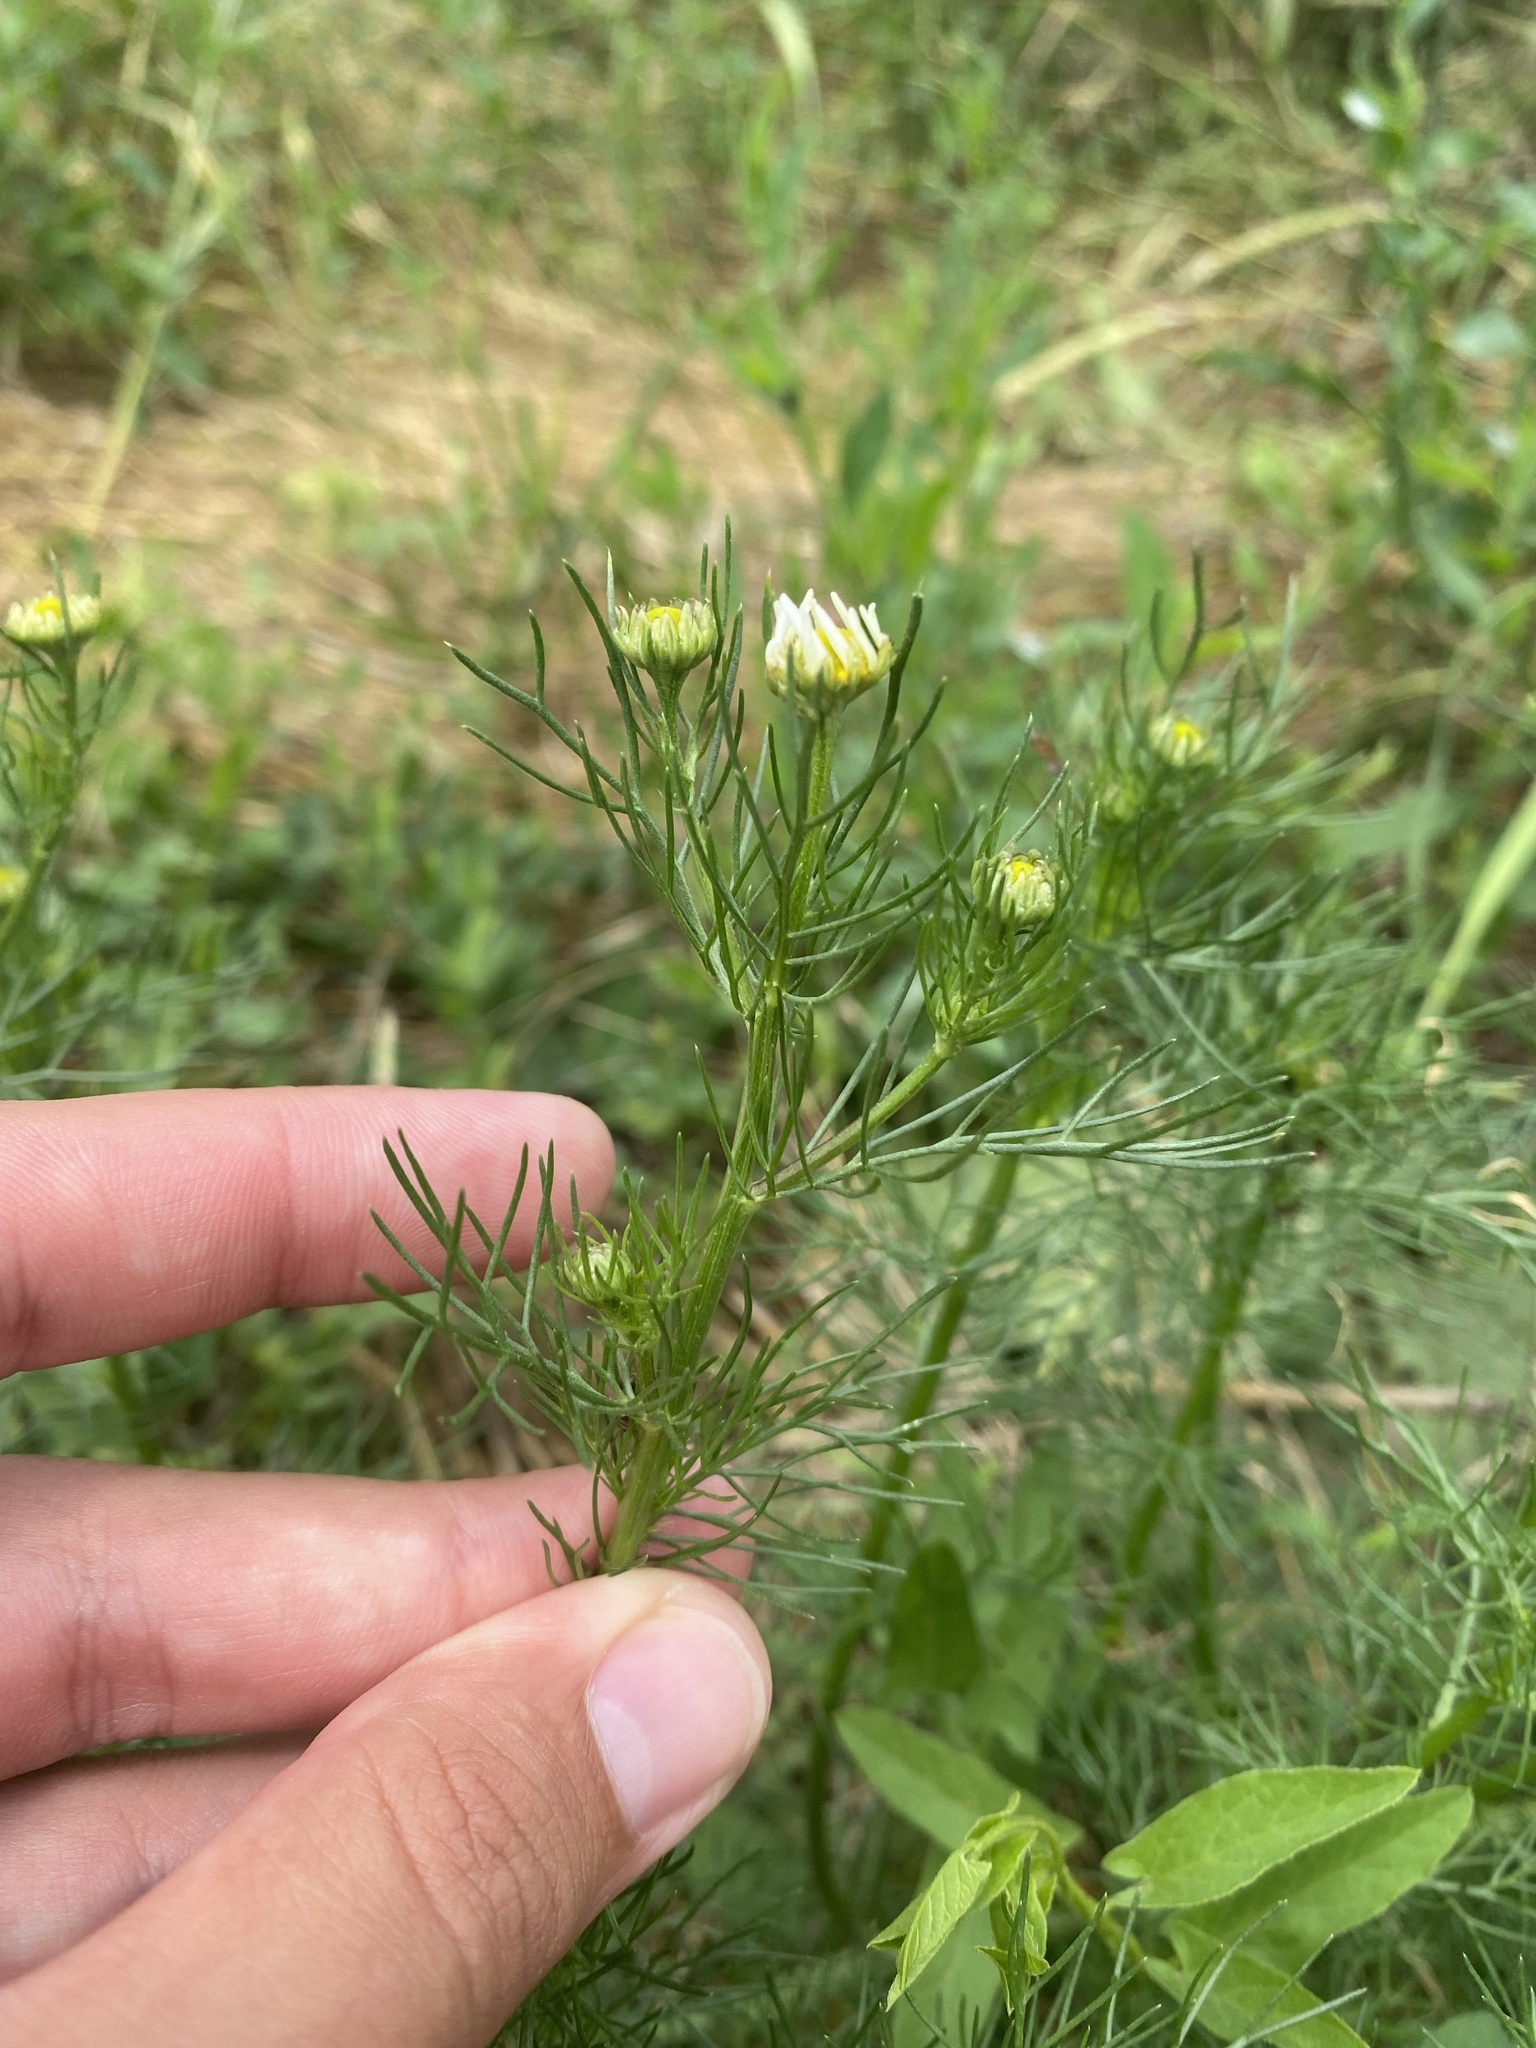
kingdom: Plantae
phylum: Tracheophyta
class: Magnoliopsida
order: Asterales
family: Asteraceae
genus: Tripleurospermum
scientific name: Tripleurospermum inodorum
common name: Scentless mayweed
